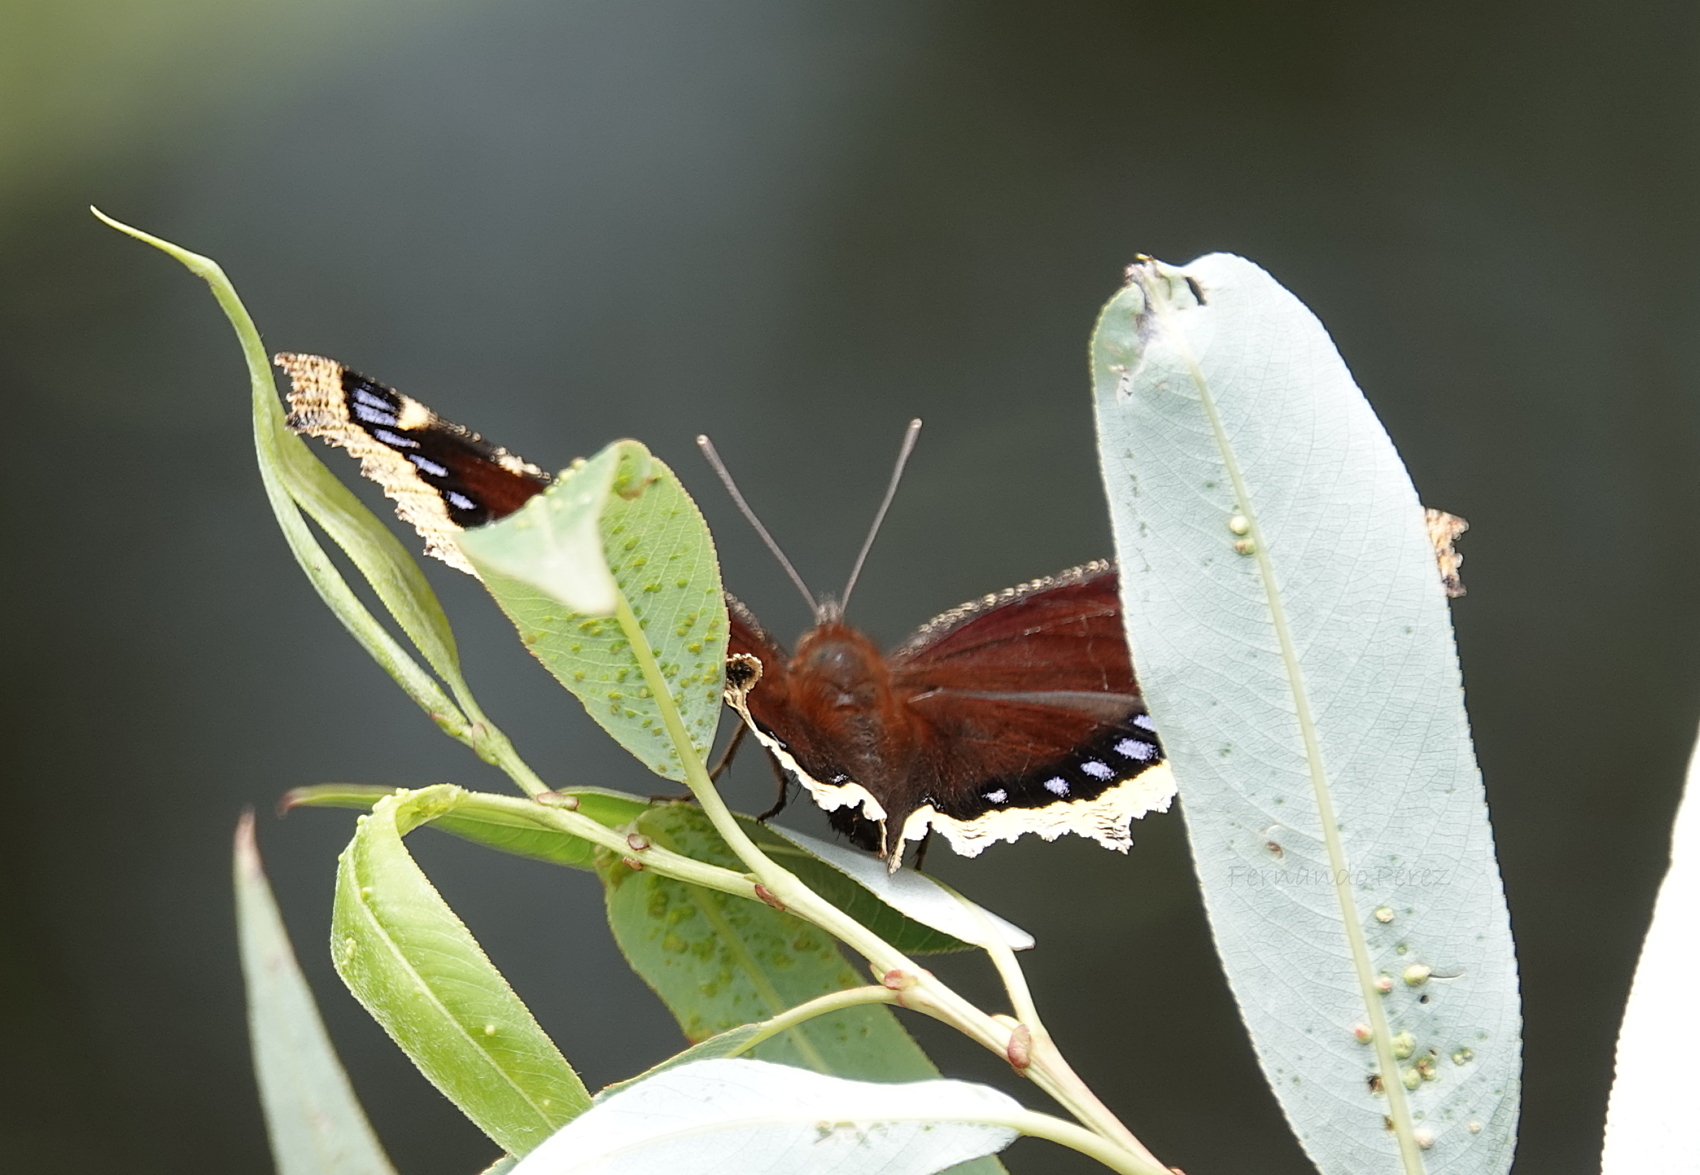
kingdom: Animalia
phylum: Arthropoda
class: Insecta
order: Lepidoptera
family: Nymphalidae
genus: Nymphalis
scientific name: Nymphalis antiopa
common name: Camberwell beauty
